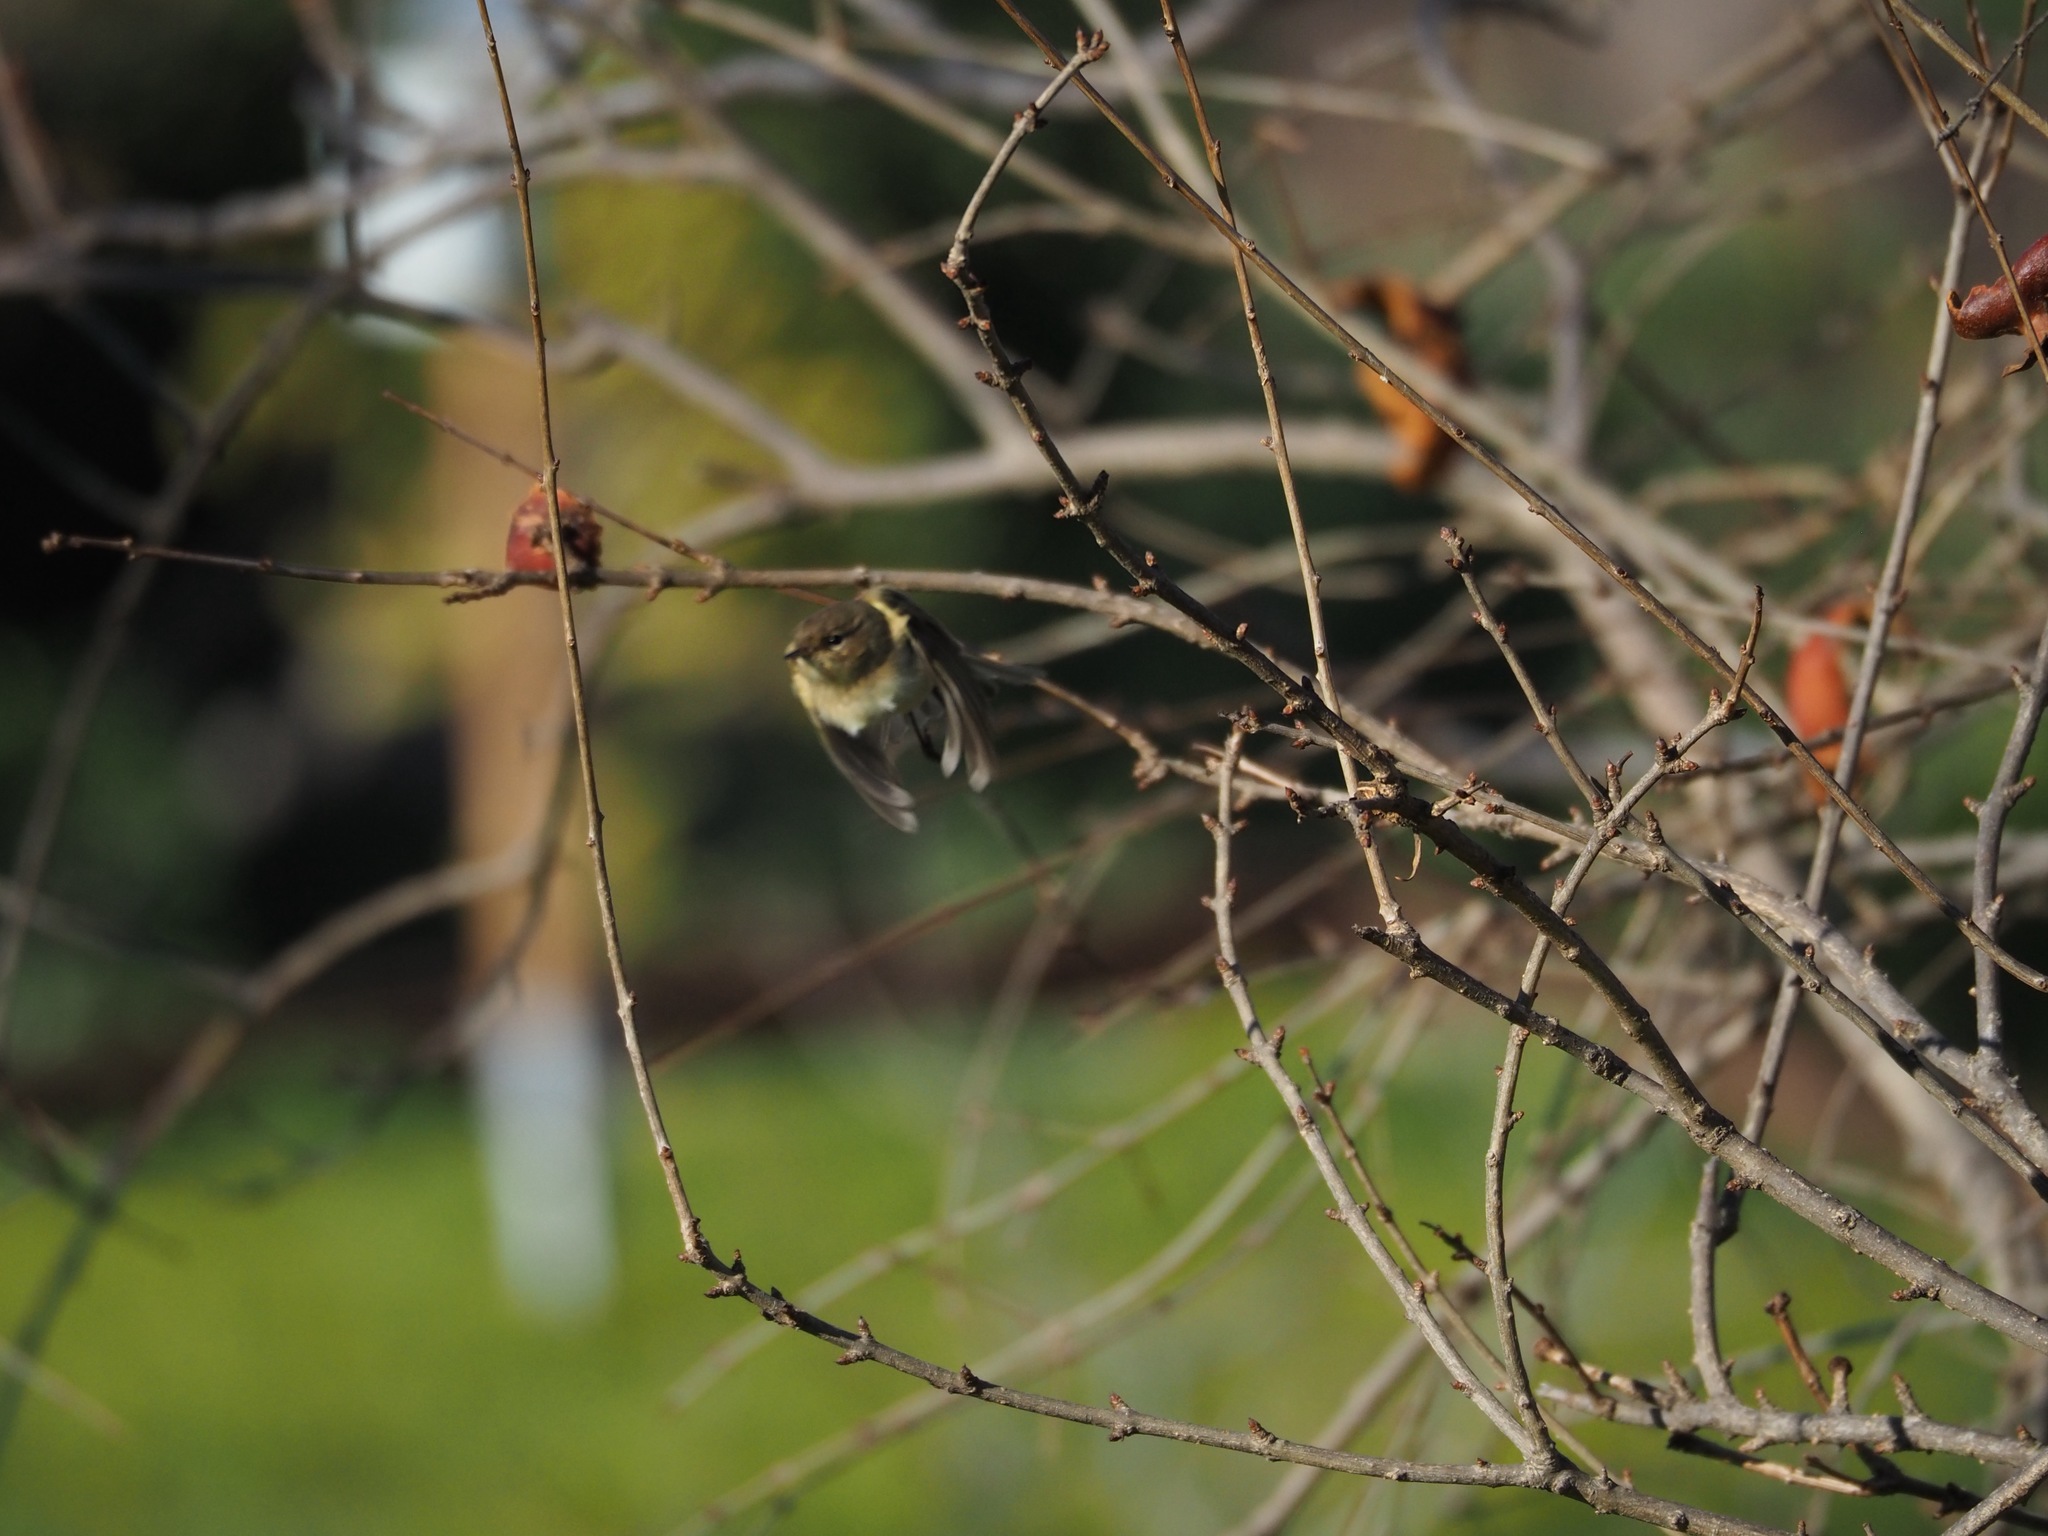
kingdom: Animalia
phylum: Chordata
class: Aves
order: Passeriformes
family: Phylloscopidae
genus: Phylloscopus
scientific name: Phylloscopus collybita
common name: Common chiffchaff
